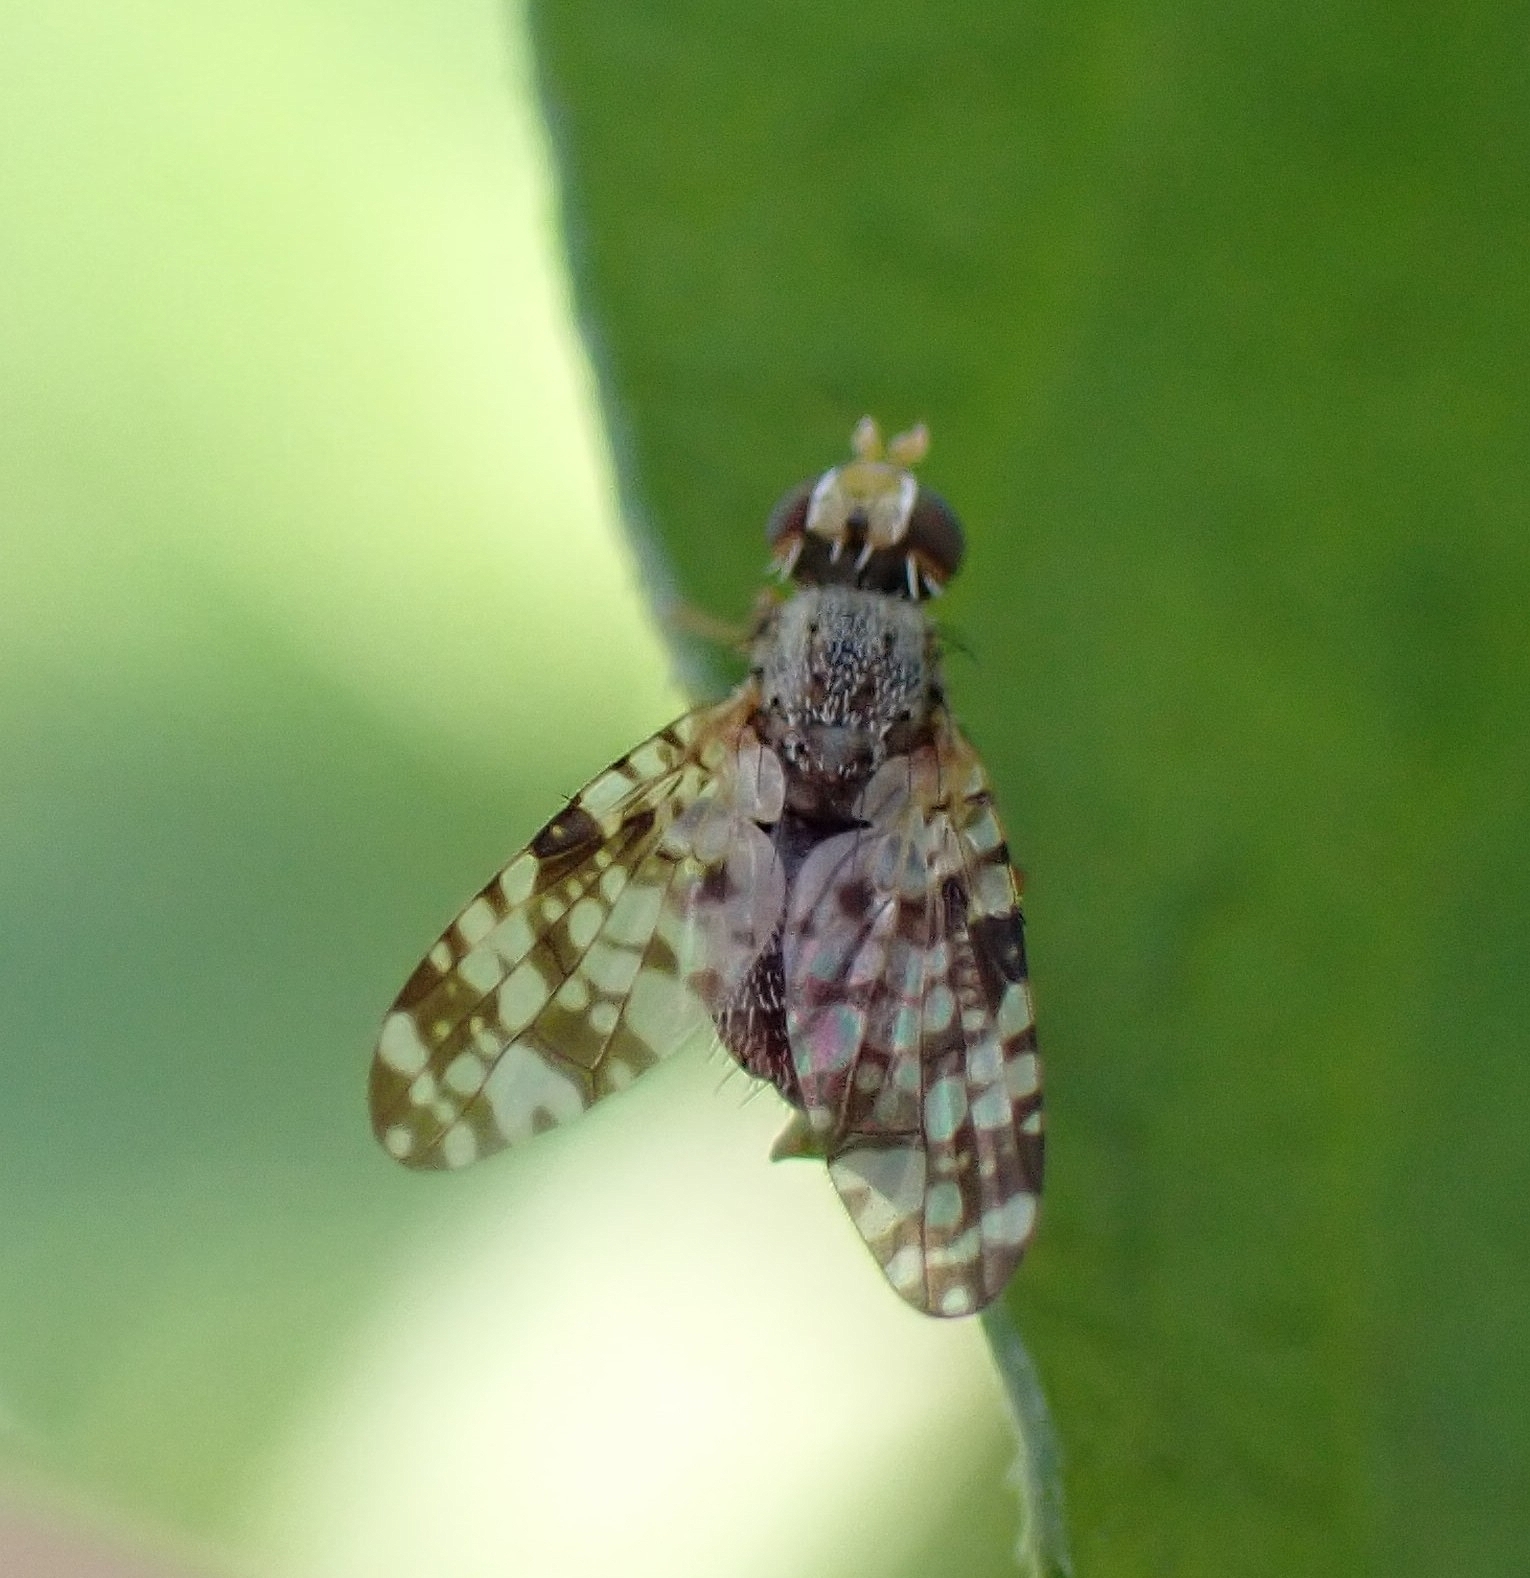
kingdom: Animalia
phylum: Arthropoda
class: Insecta
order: Diptera
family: Tephritidae
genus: Campiglossa
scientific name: Campiglossa producta
